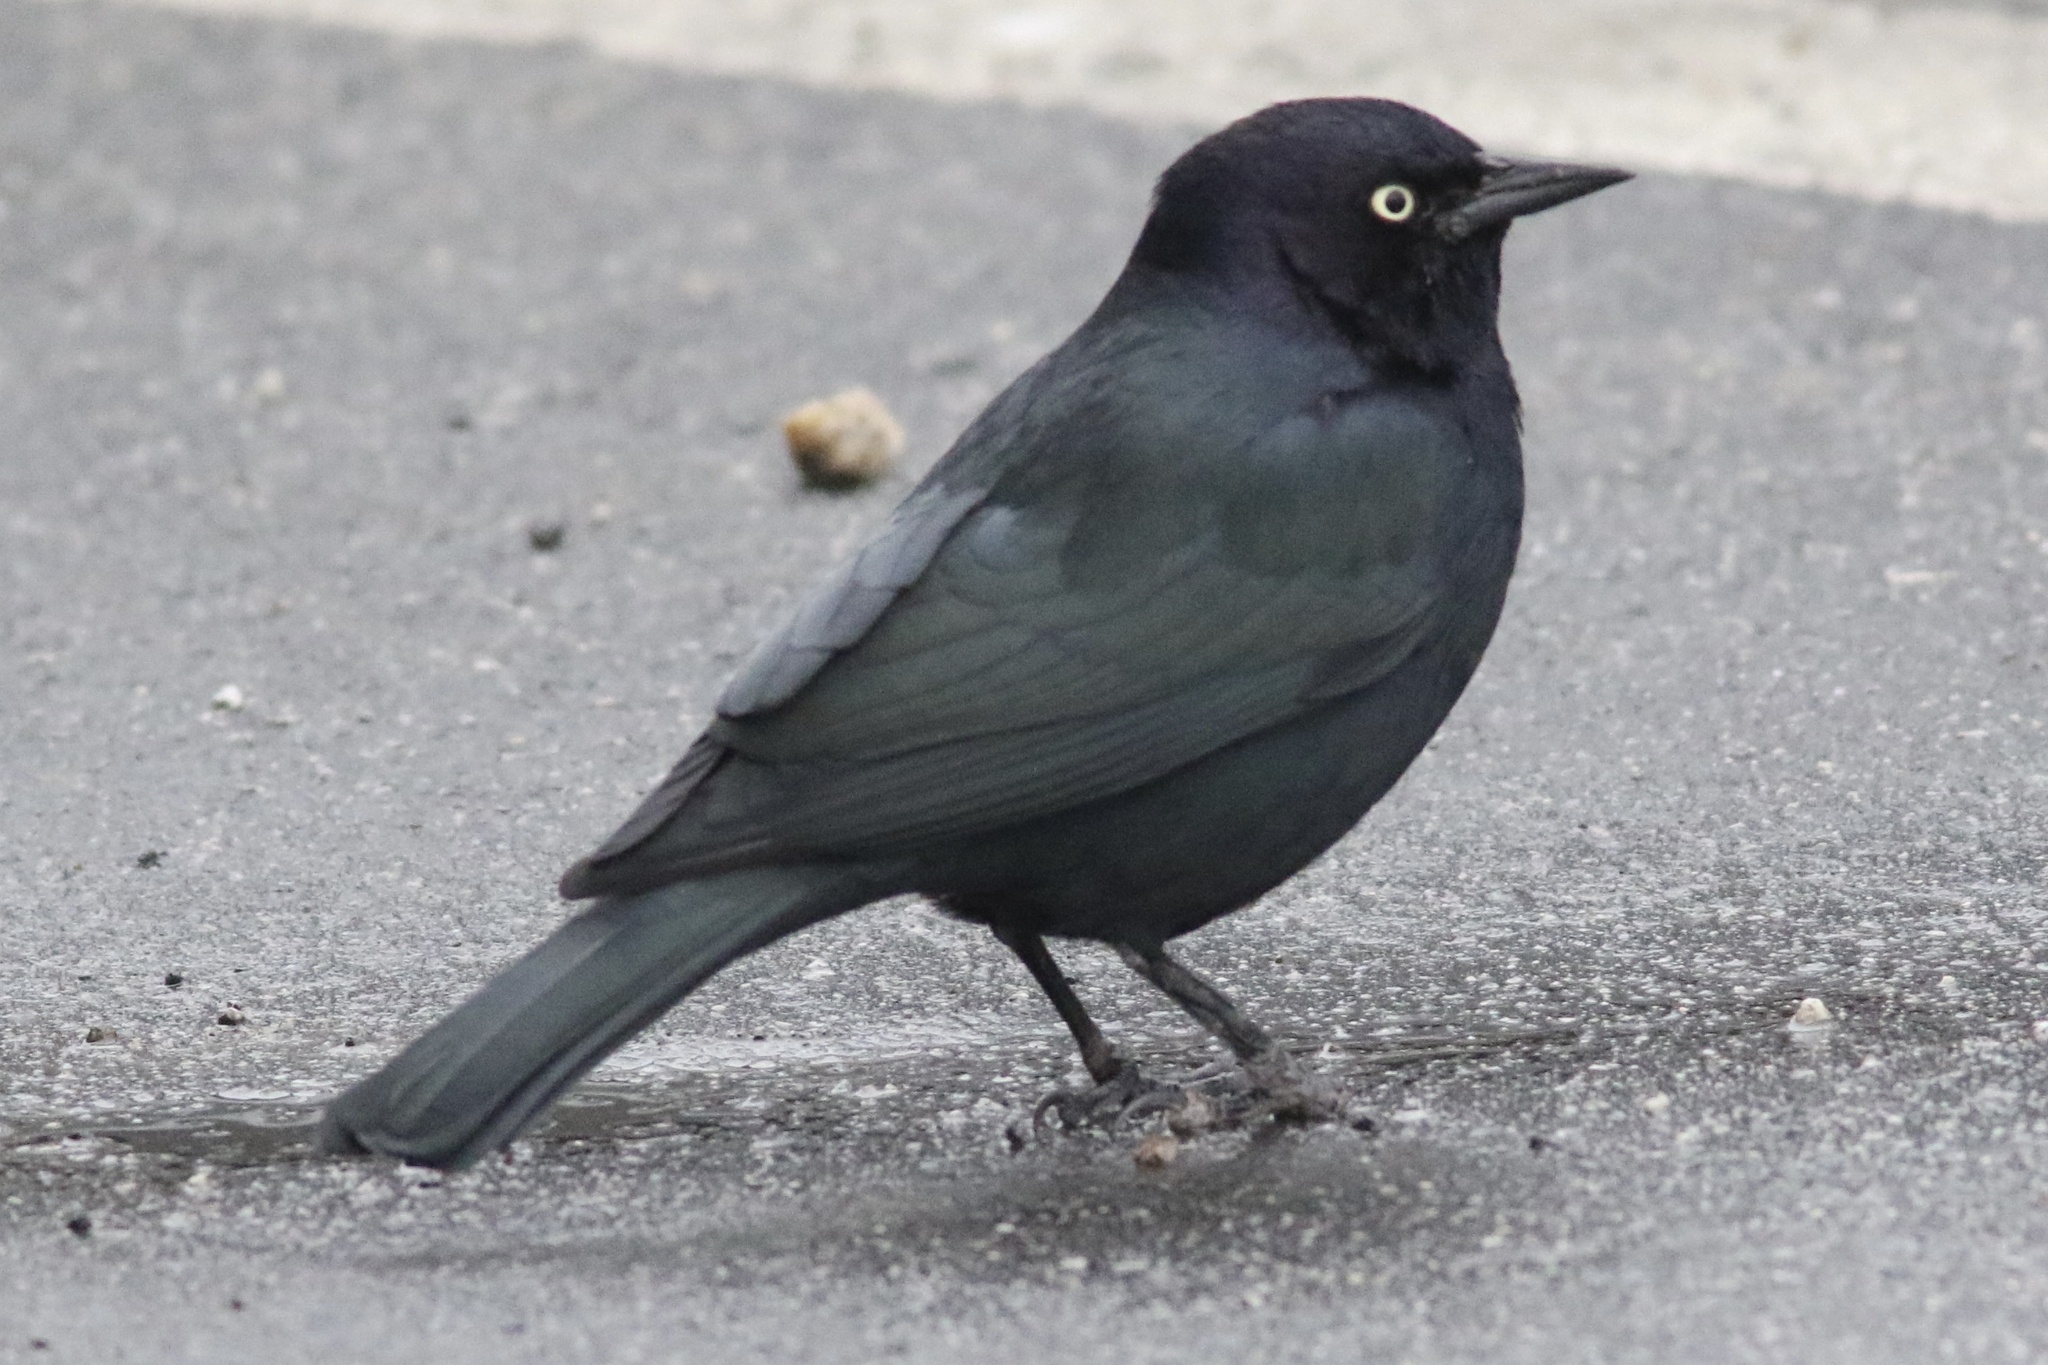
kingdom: Animalia
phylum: Chordata
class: Aves
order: Passeriformes
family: Icteridae
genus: Euphagus
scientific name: Euphagus cyanocephalus
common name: Brewer's blackbird
